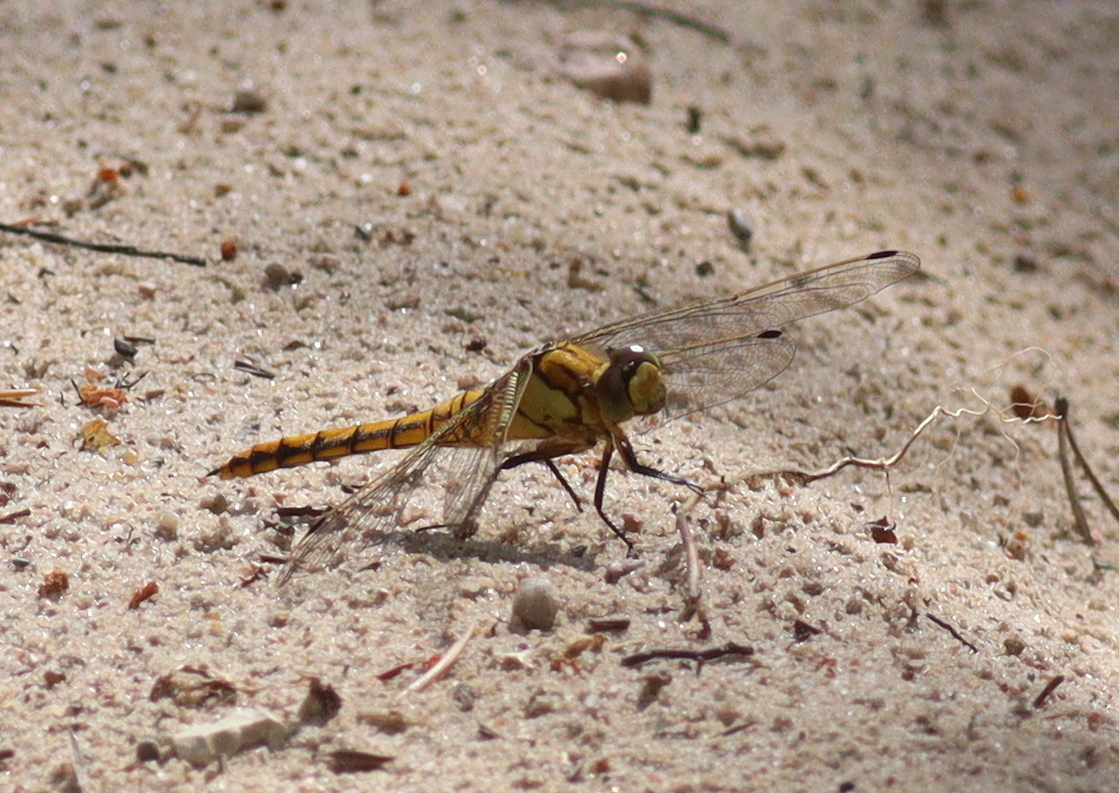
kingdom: Animalia
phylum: Arthropoda
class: Insecta
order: Odonata
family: Libellulidae
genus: Orthetrum
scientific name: Orthetrum cancellatum
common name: Black-tailed skimmer
